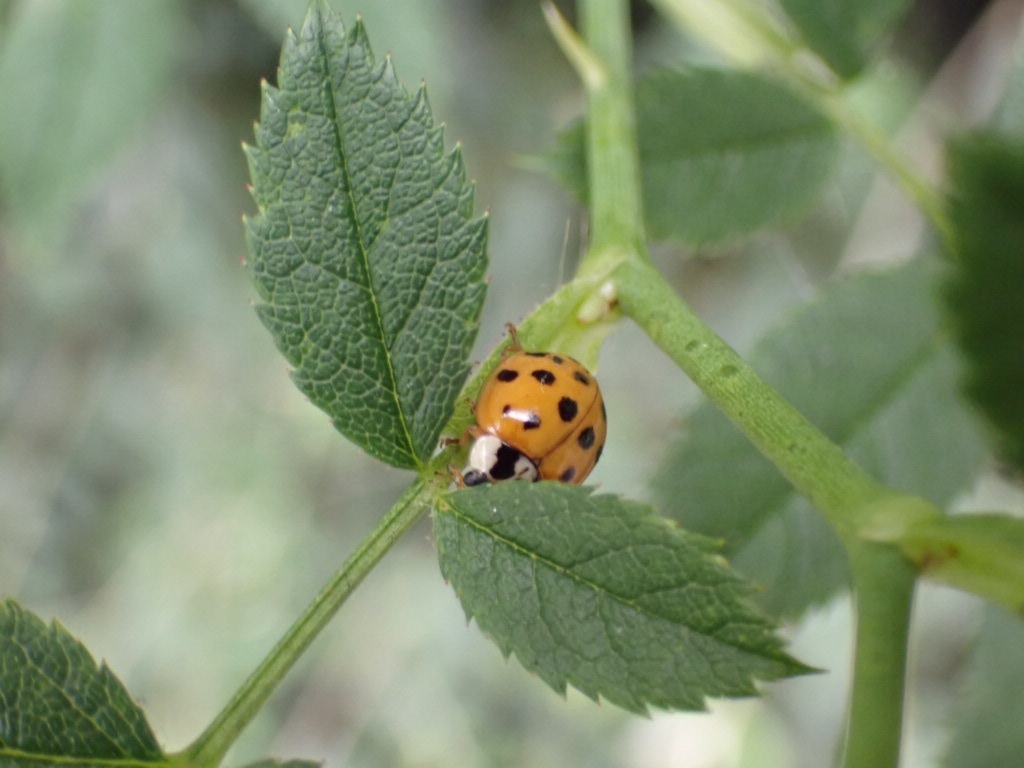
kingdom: Animalia
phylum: Arthropoda
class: Insecta
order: Coleoptera
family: Coccinellidae
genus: Harmonia
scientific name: Harmonia axyridis
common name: Harlequin ladybird
